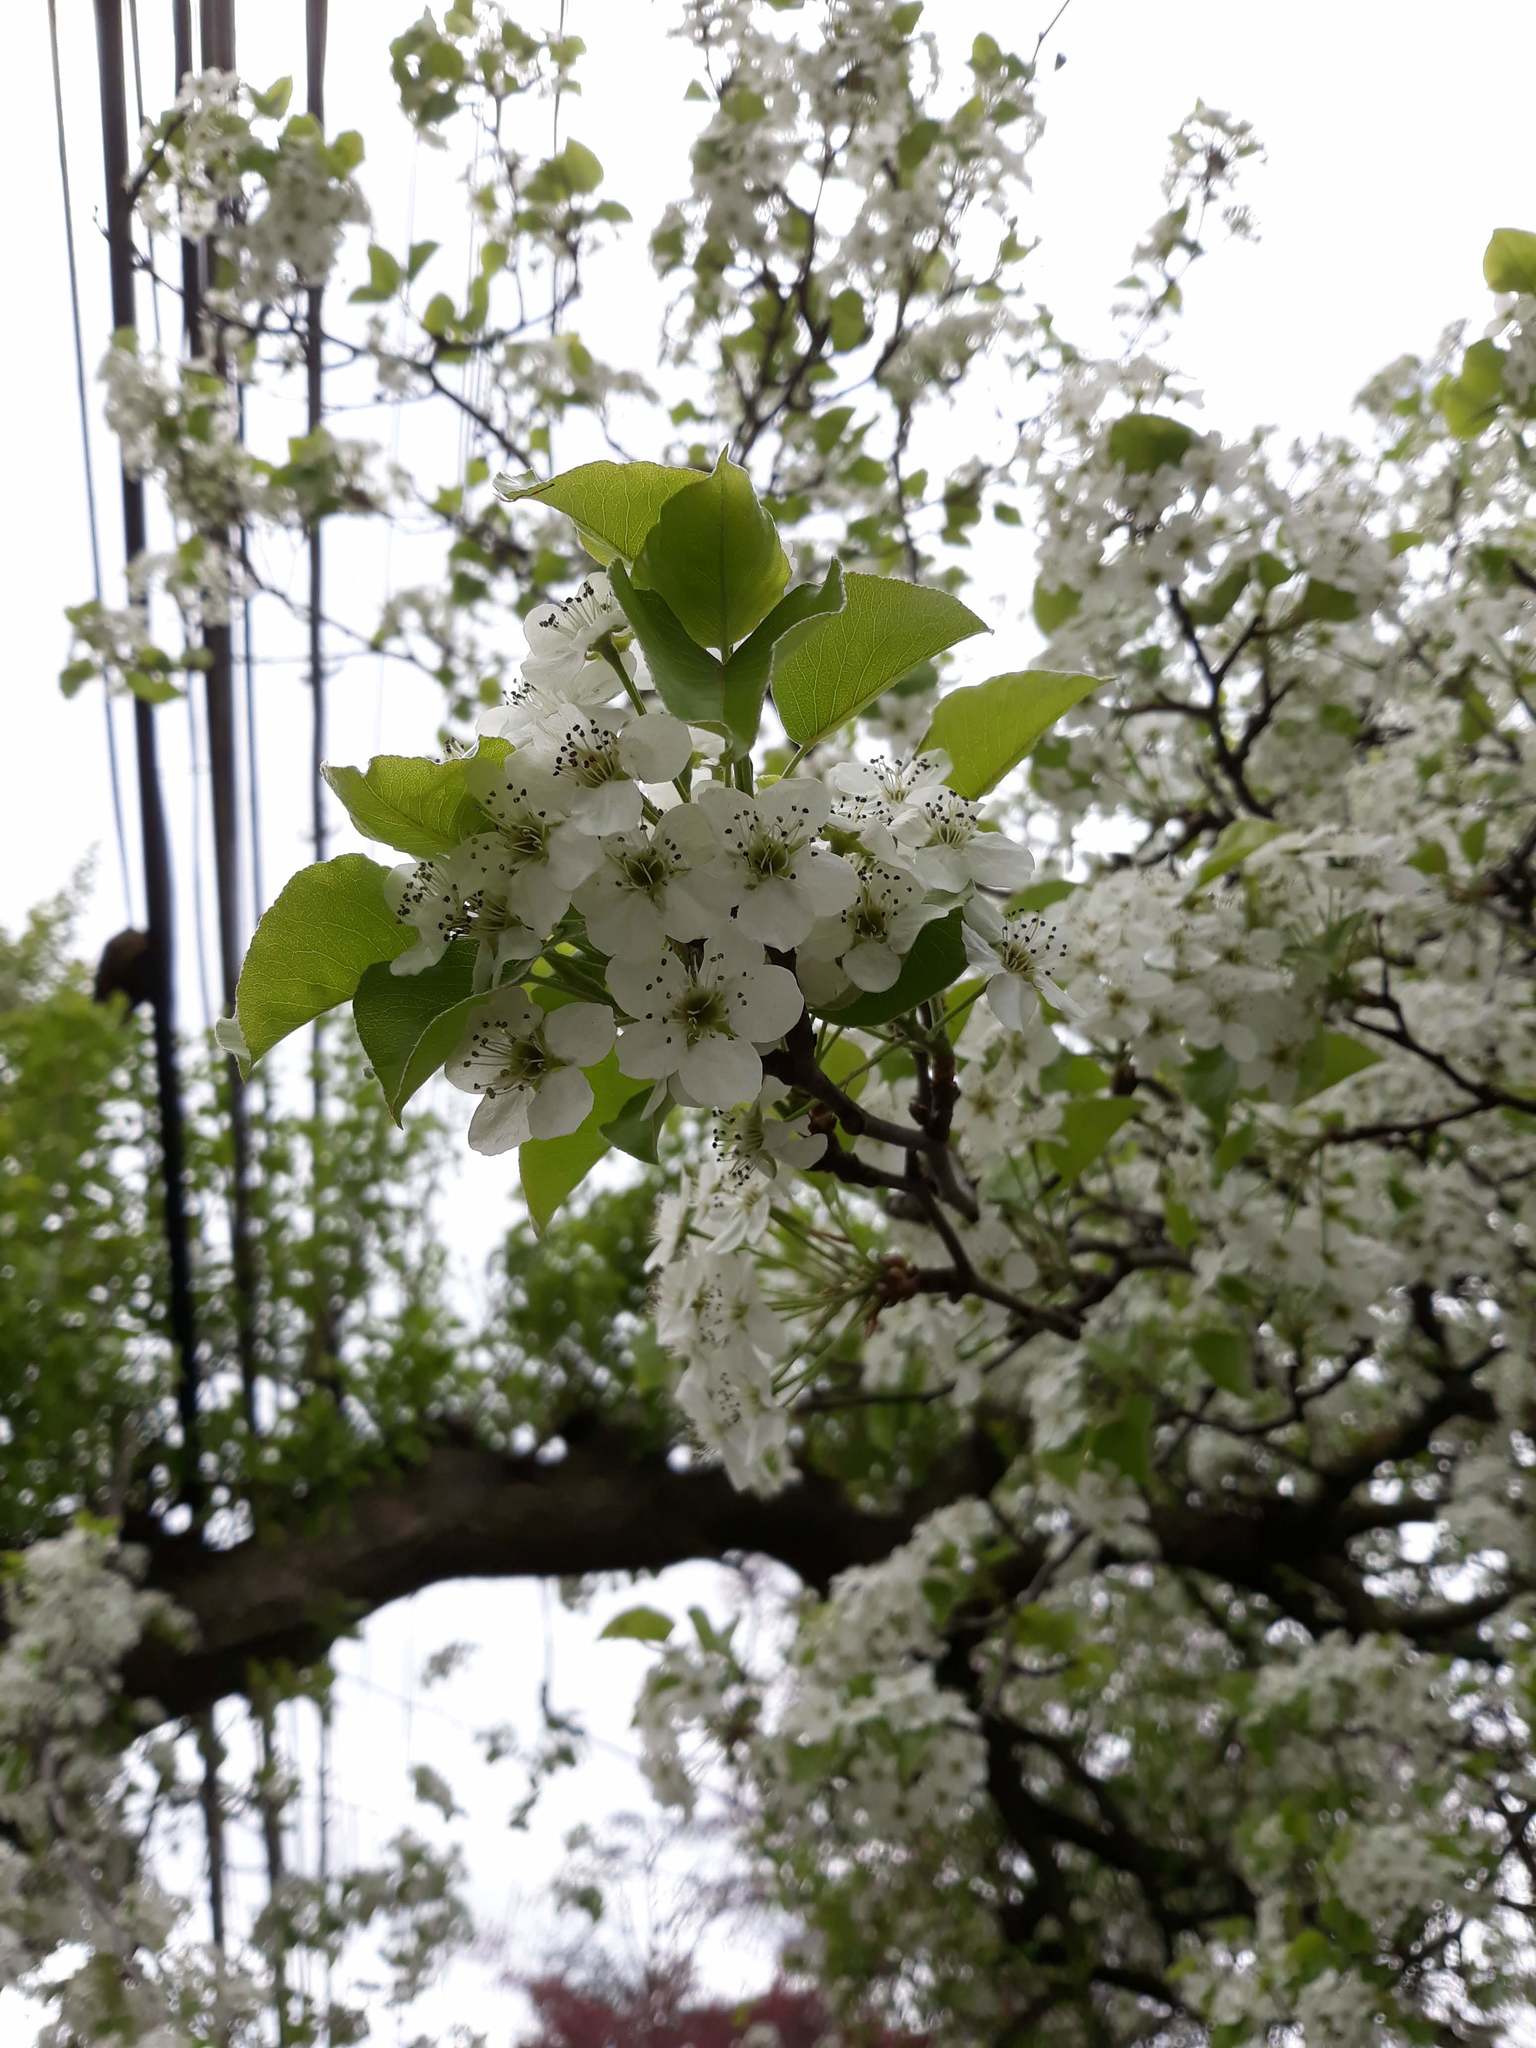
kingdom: Plantae
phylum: Tracheophyta
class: Magnoliopsida
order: Rosales
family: Rosaceae
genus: Pyrus
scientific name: Pyrus calleryana
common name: Callery pear
